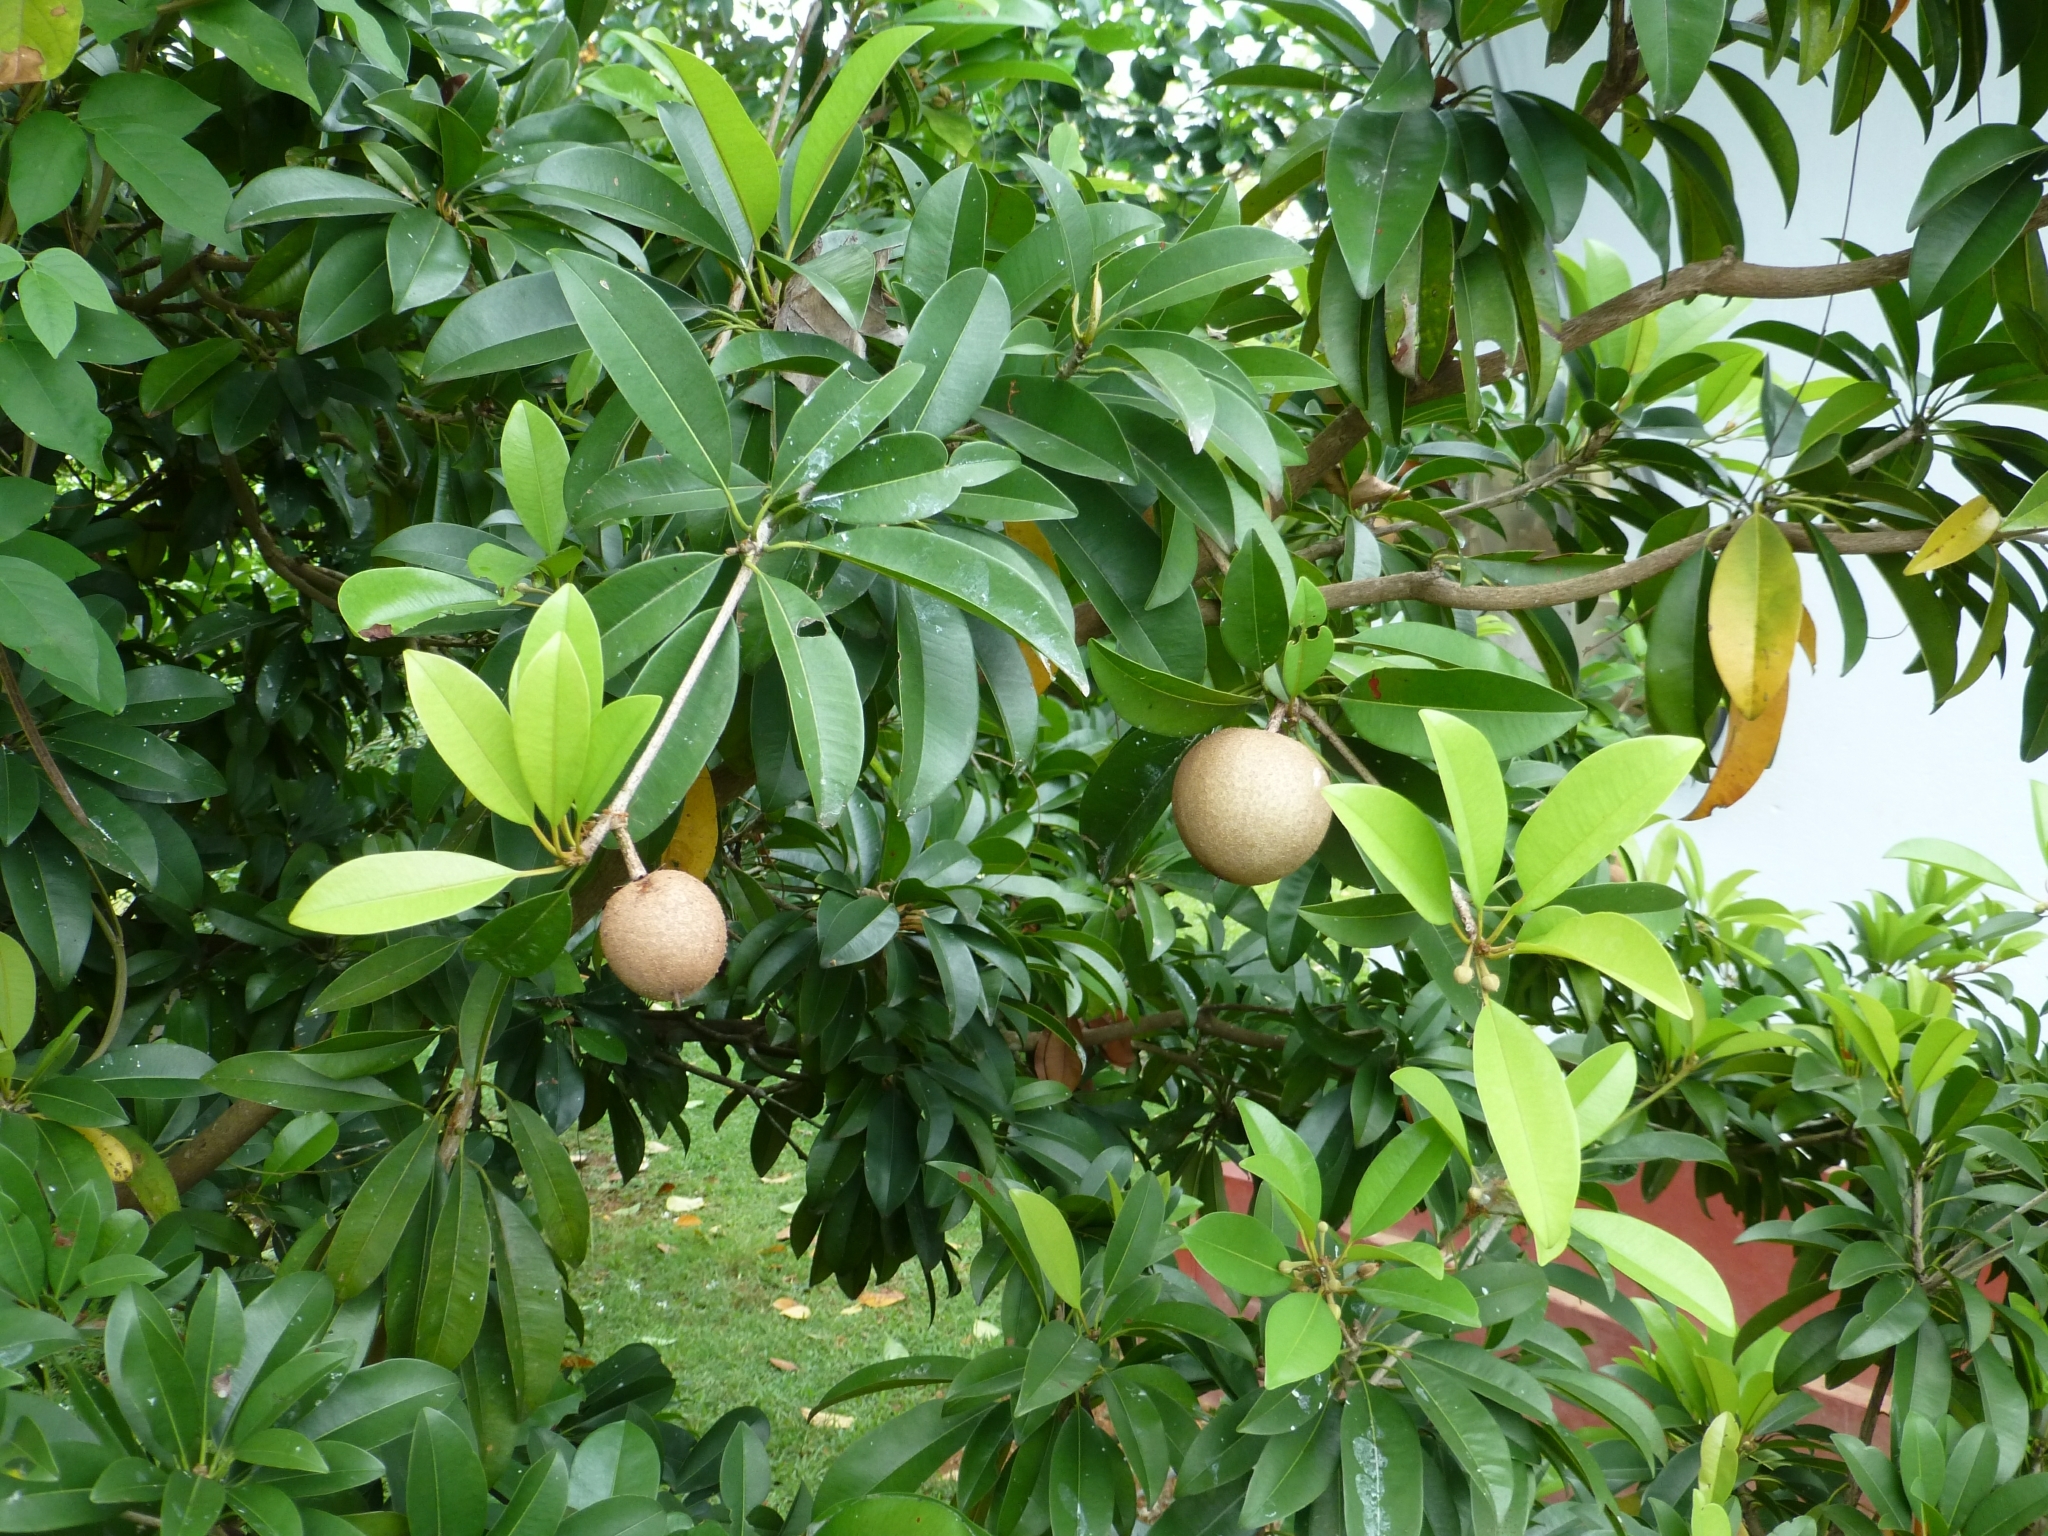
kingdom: Plantae
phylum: Tracheophyta
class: Magnoliopsida
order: Ericales
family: Sapotaceae
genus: Manilkara
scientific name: Manilkara zapota
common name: Sapodilla
